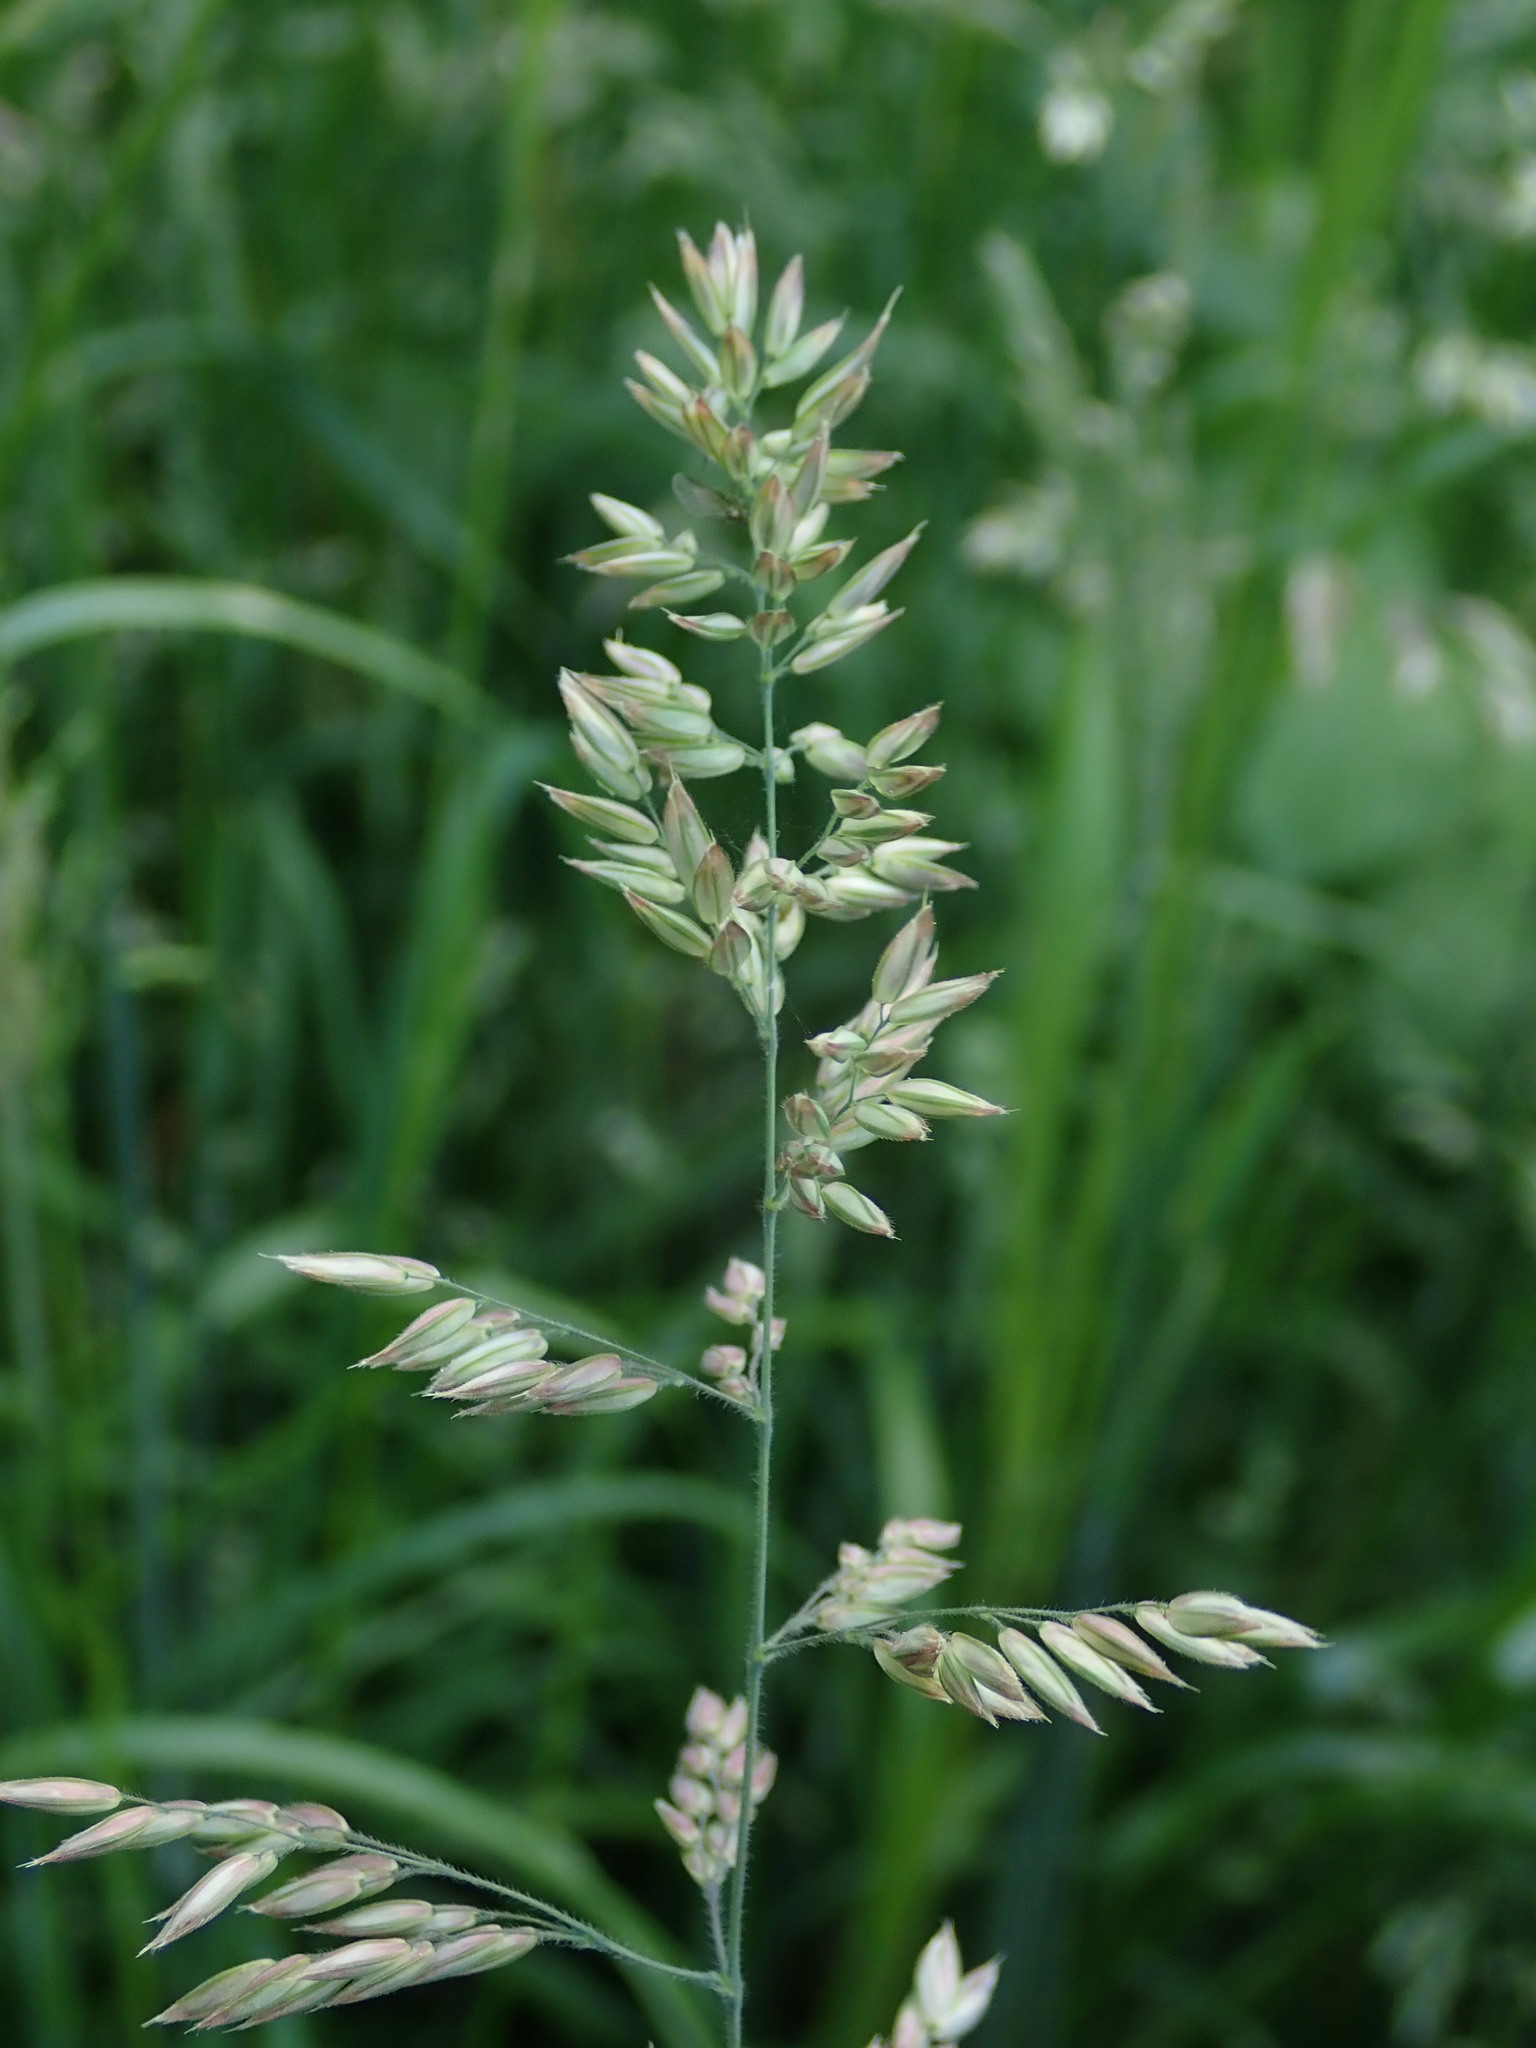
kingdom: Plantae
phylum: Tracheophyta
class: Liliopsida
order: Poales
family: Poaceae
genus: Holcus
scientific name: Holcus lanatus
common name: Yorkshire-fog
